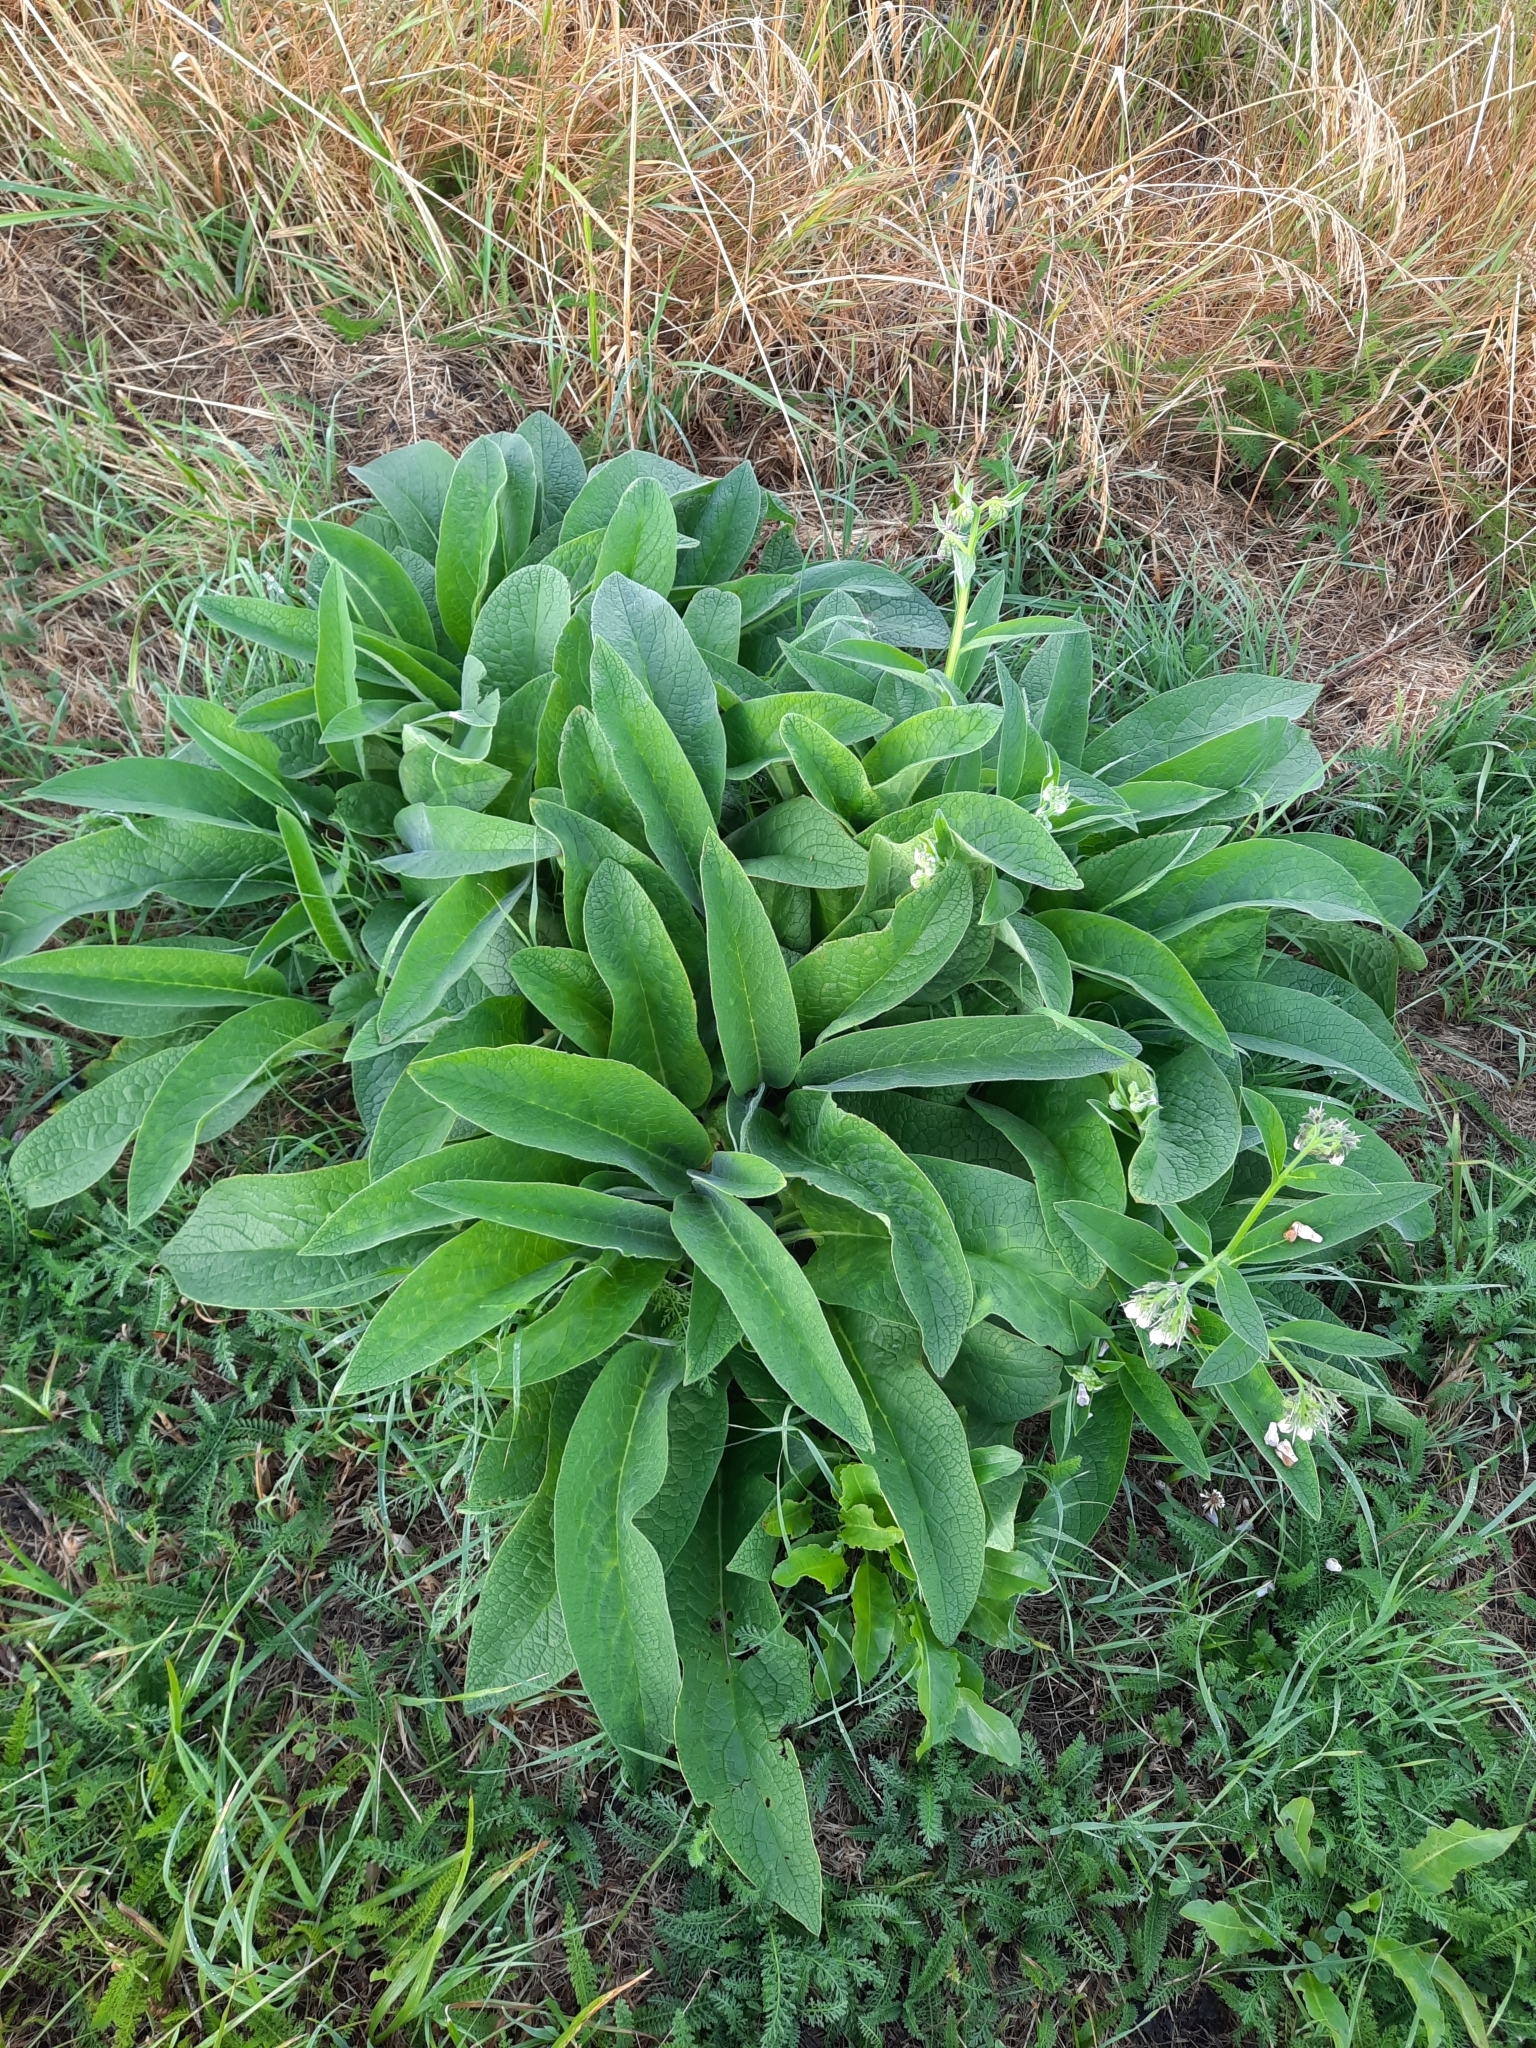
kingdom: Plantae
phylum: Tracheophyta
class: Magnoliopsida
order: Boraginales
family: Boraginaceae
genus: Symphytum
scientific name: Symphytum officinale
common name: Common comfrey
